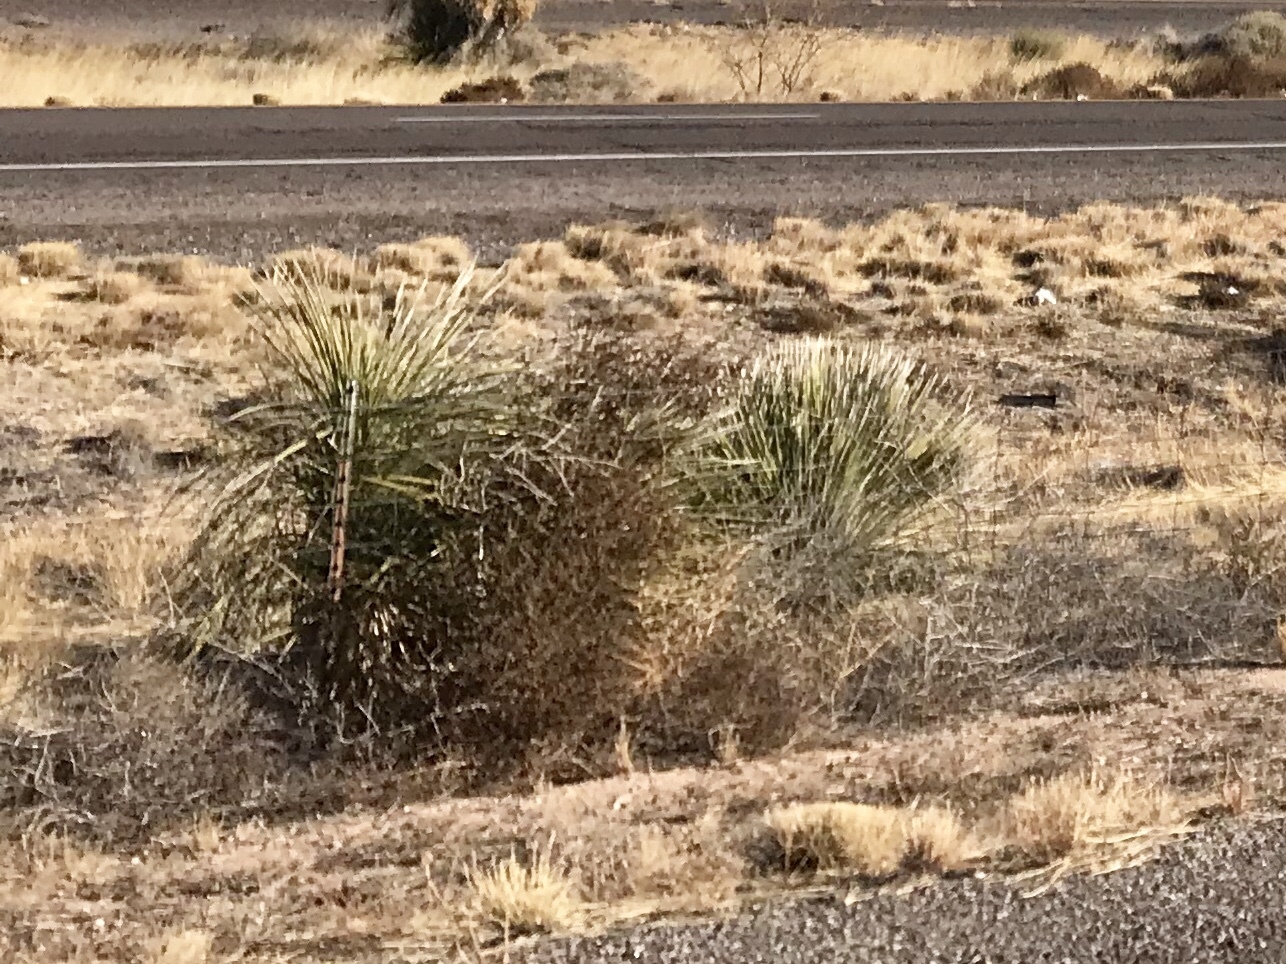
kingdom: Plantae
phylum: Tracheophyta
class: Liliopsida
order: Asparagales
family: Asparagaceae
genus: Yucca
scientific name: Yucca elata
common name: Palmella
